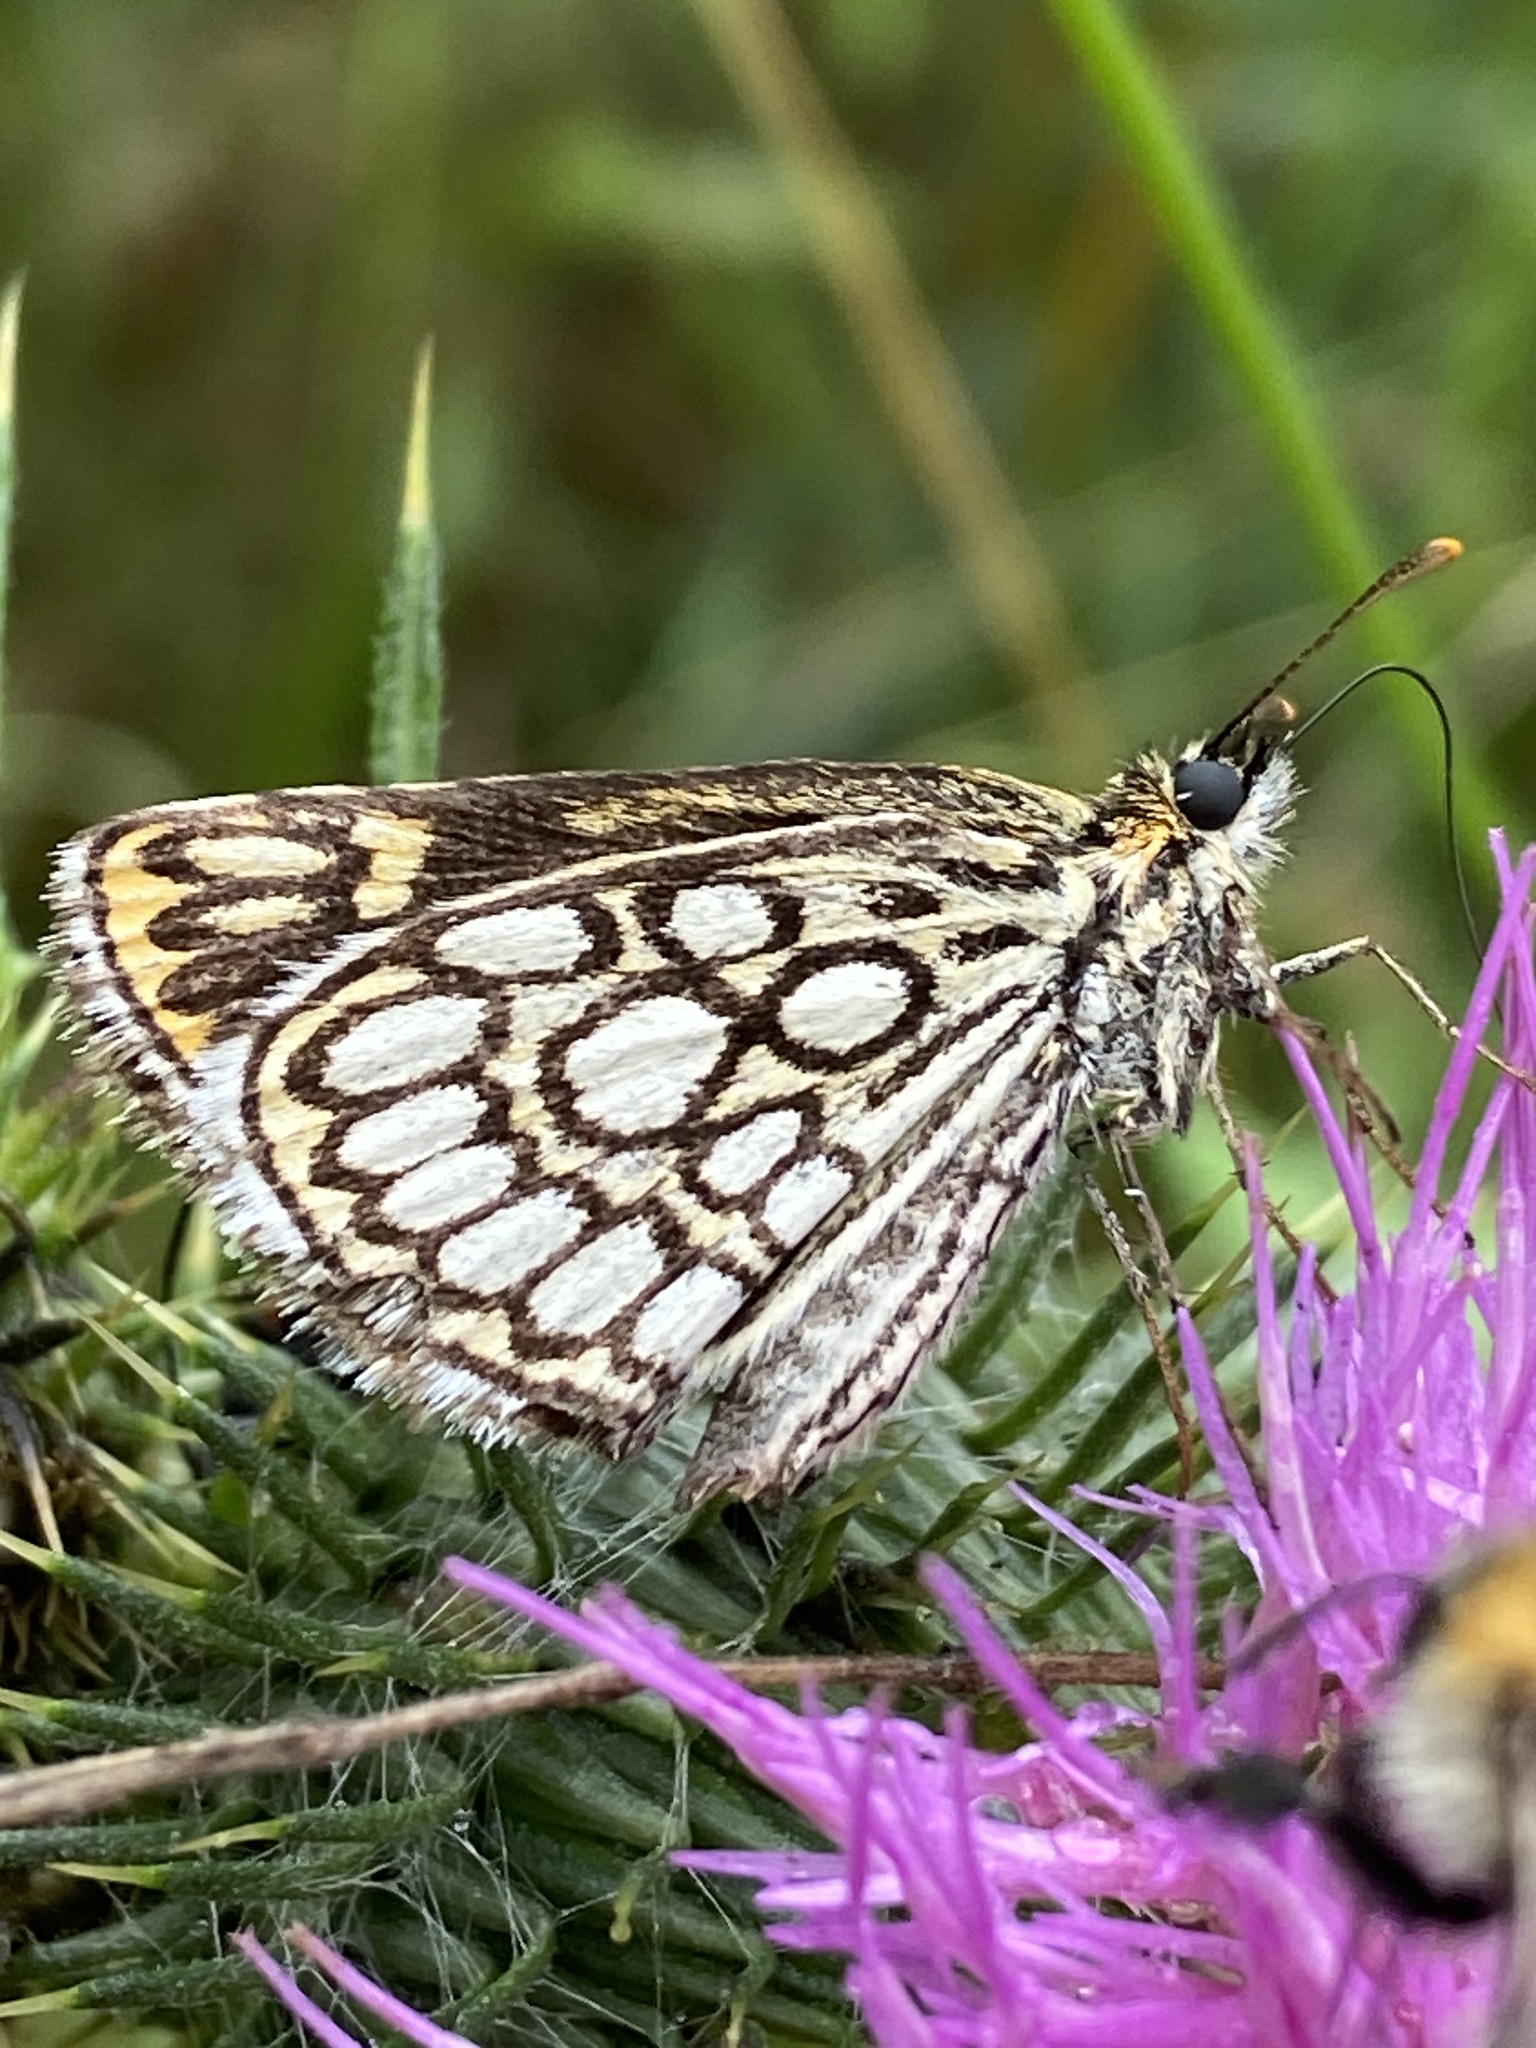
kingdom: Animalia
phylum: Arthropoda
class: Insecta
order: Lepidoptera
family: Hesperiidae
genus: Heteropterus
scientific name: Heteropterus morpheus
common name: Large chequered skipper
